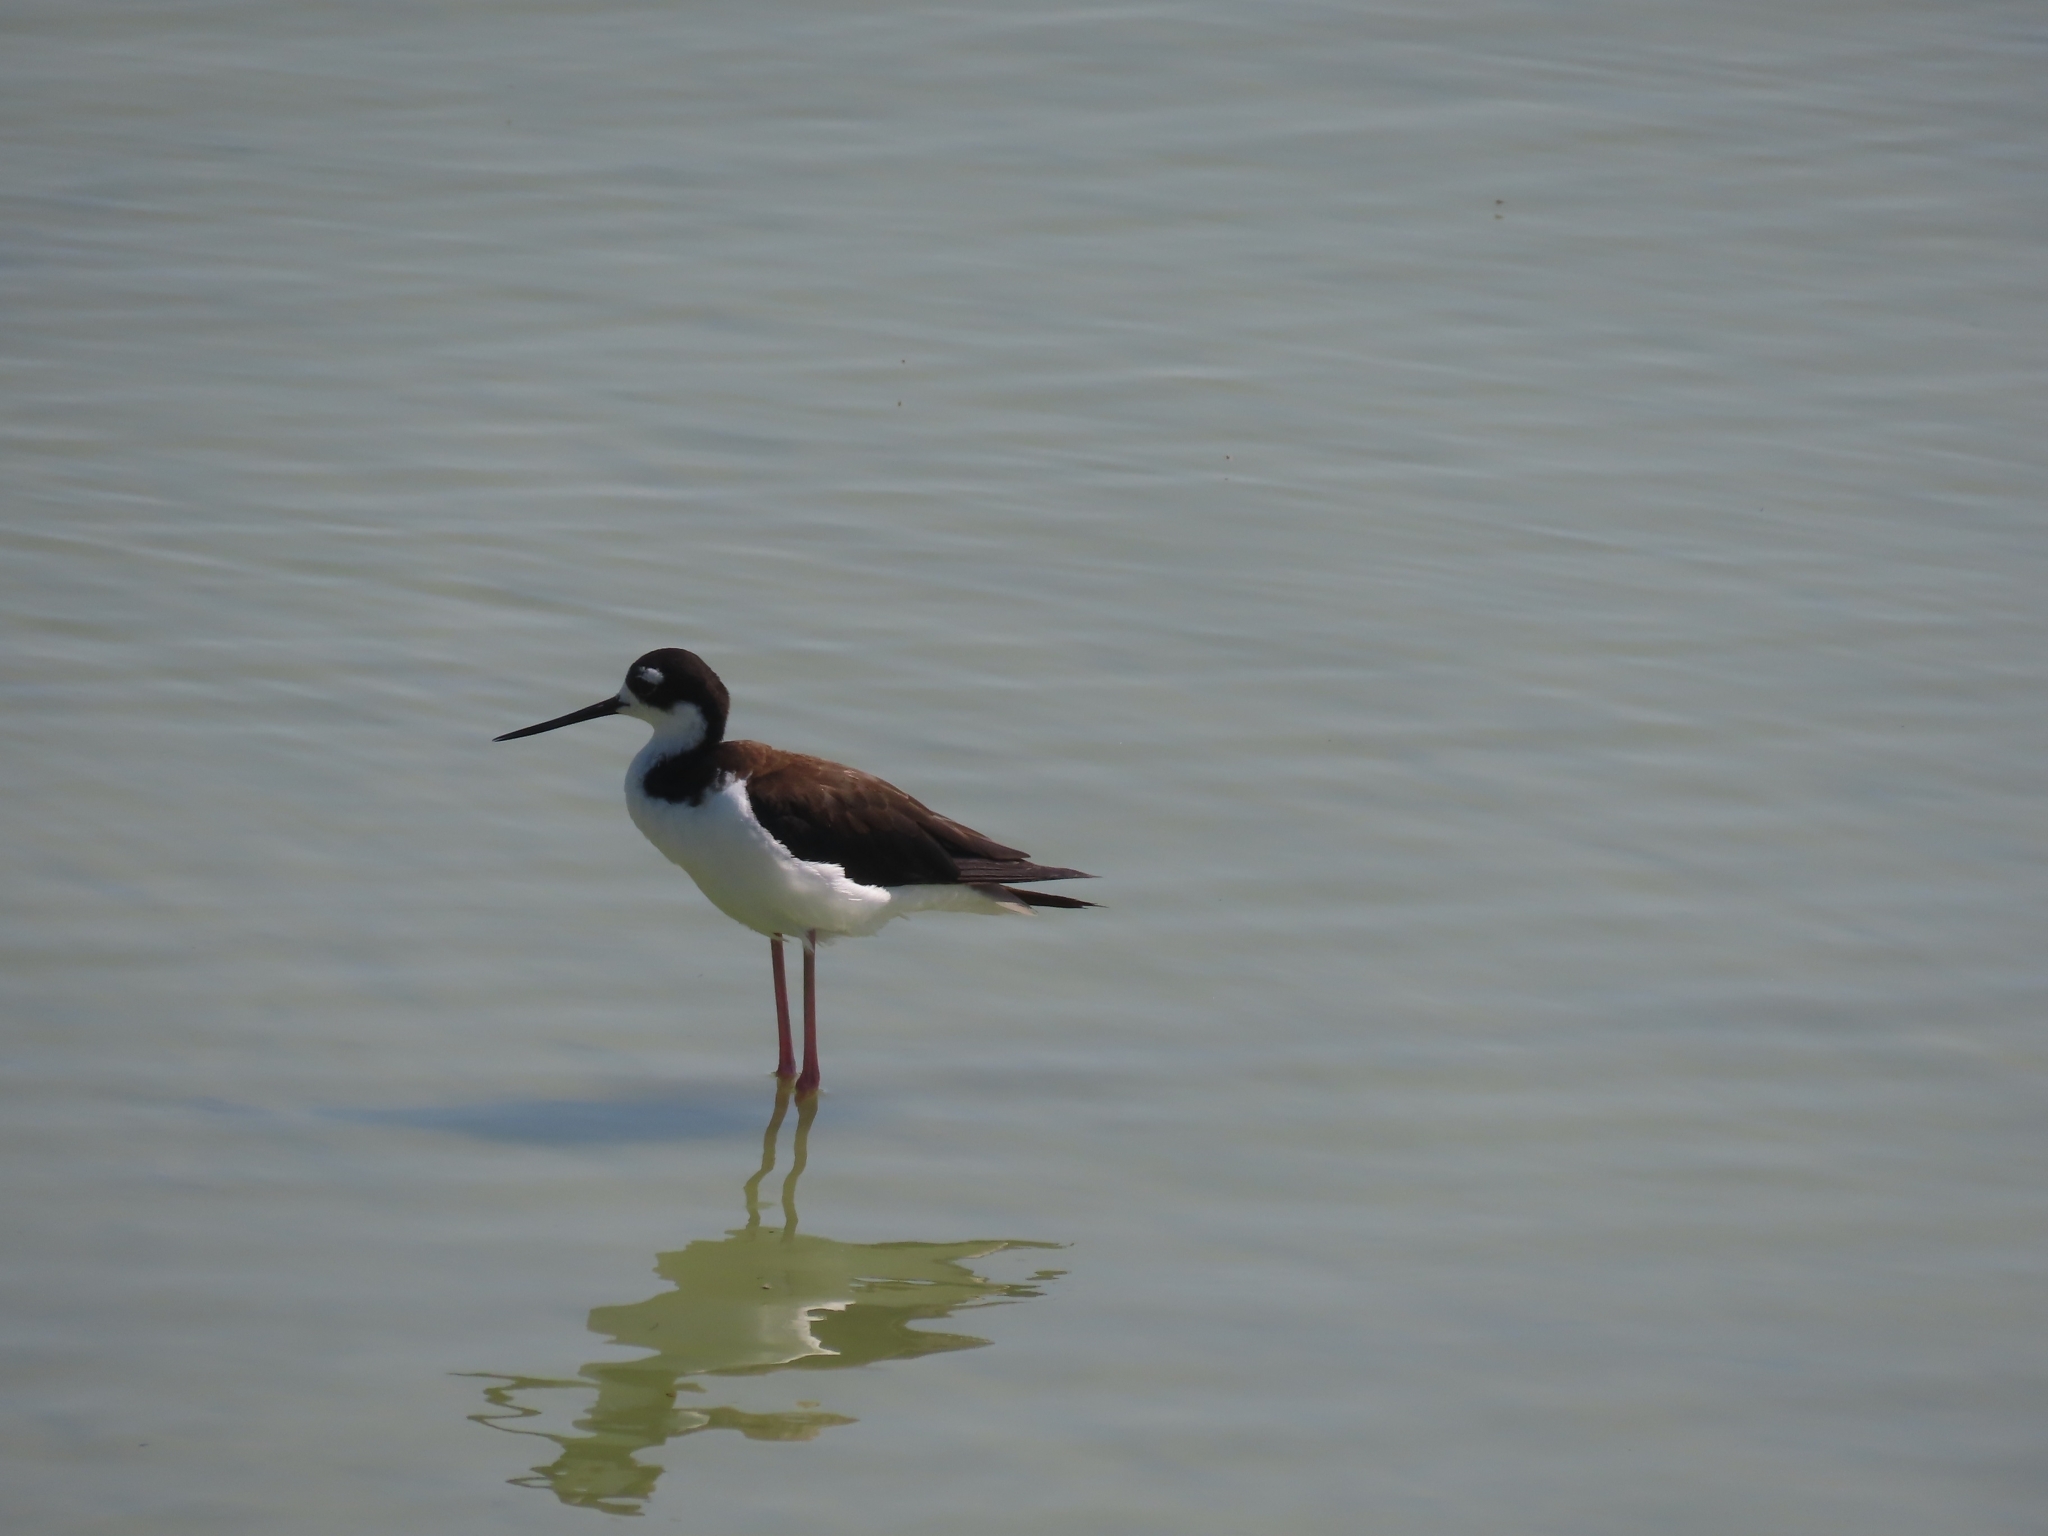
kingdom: Animalia
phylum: Chordata
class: Aves
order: Charadriiformes
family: Recurvirostridae
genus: Himantopus
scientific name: Himantopus mexicanus
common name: Black-necked stilt
